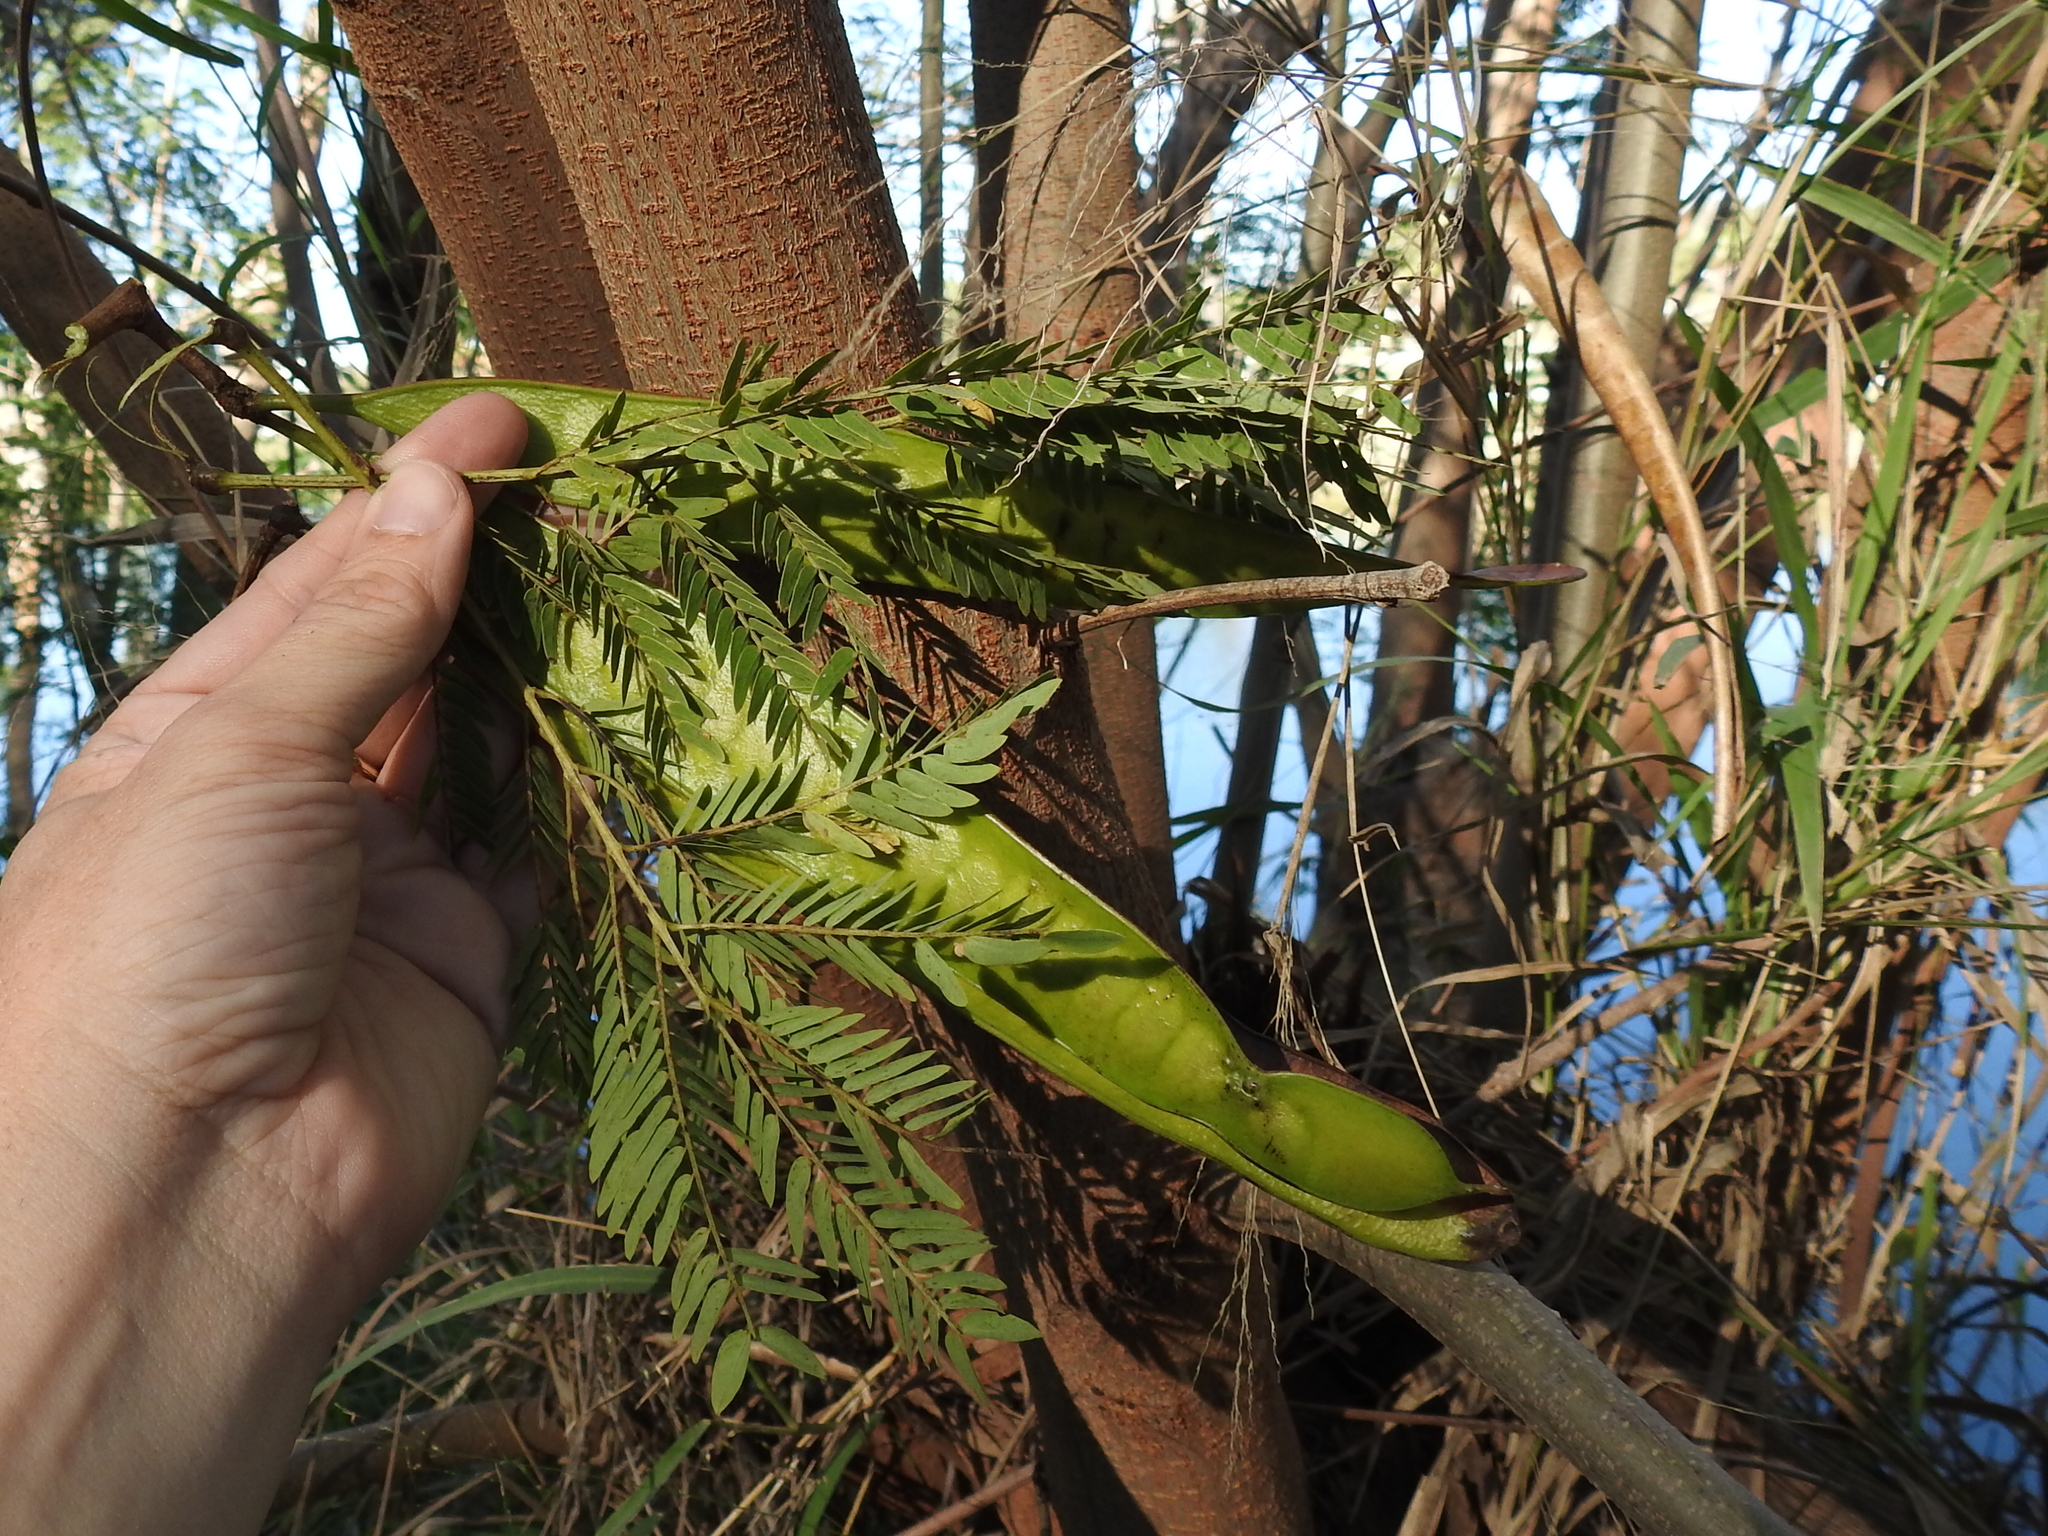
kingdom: Plantae
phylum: Tracheophyta
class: Magnoliopsida
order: Fabales
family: Fabaceae
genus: Leucaena
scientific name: Leucaena leucocephala
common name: White leadtree
